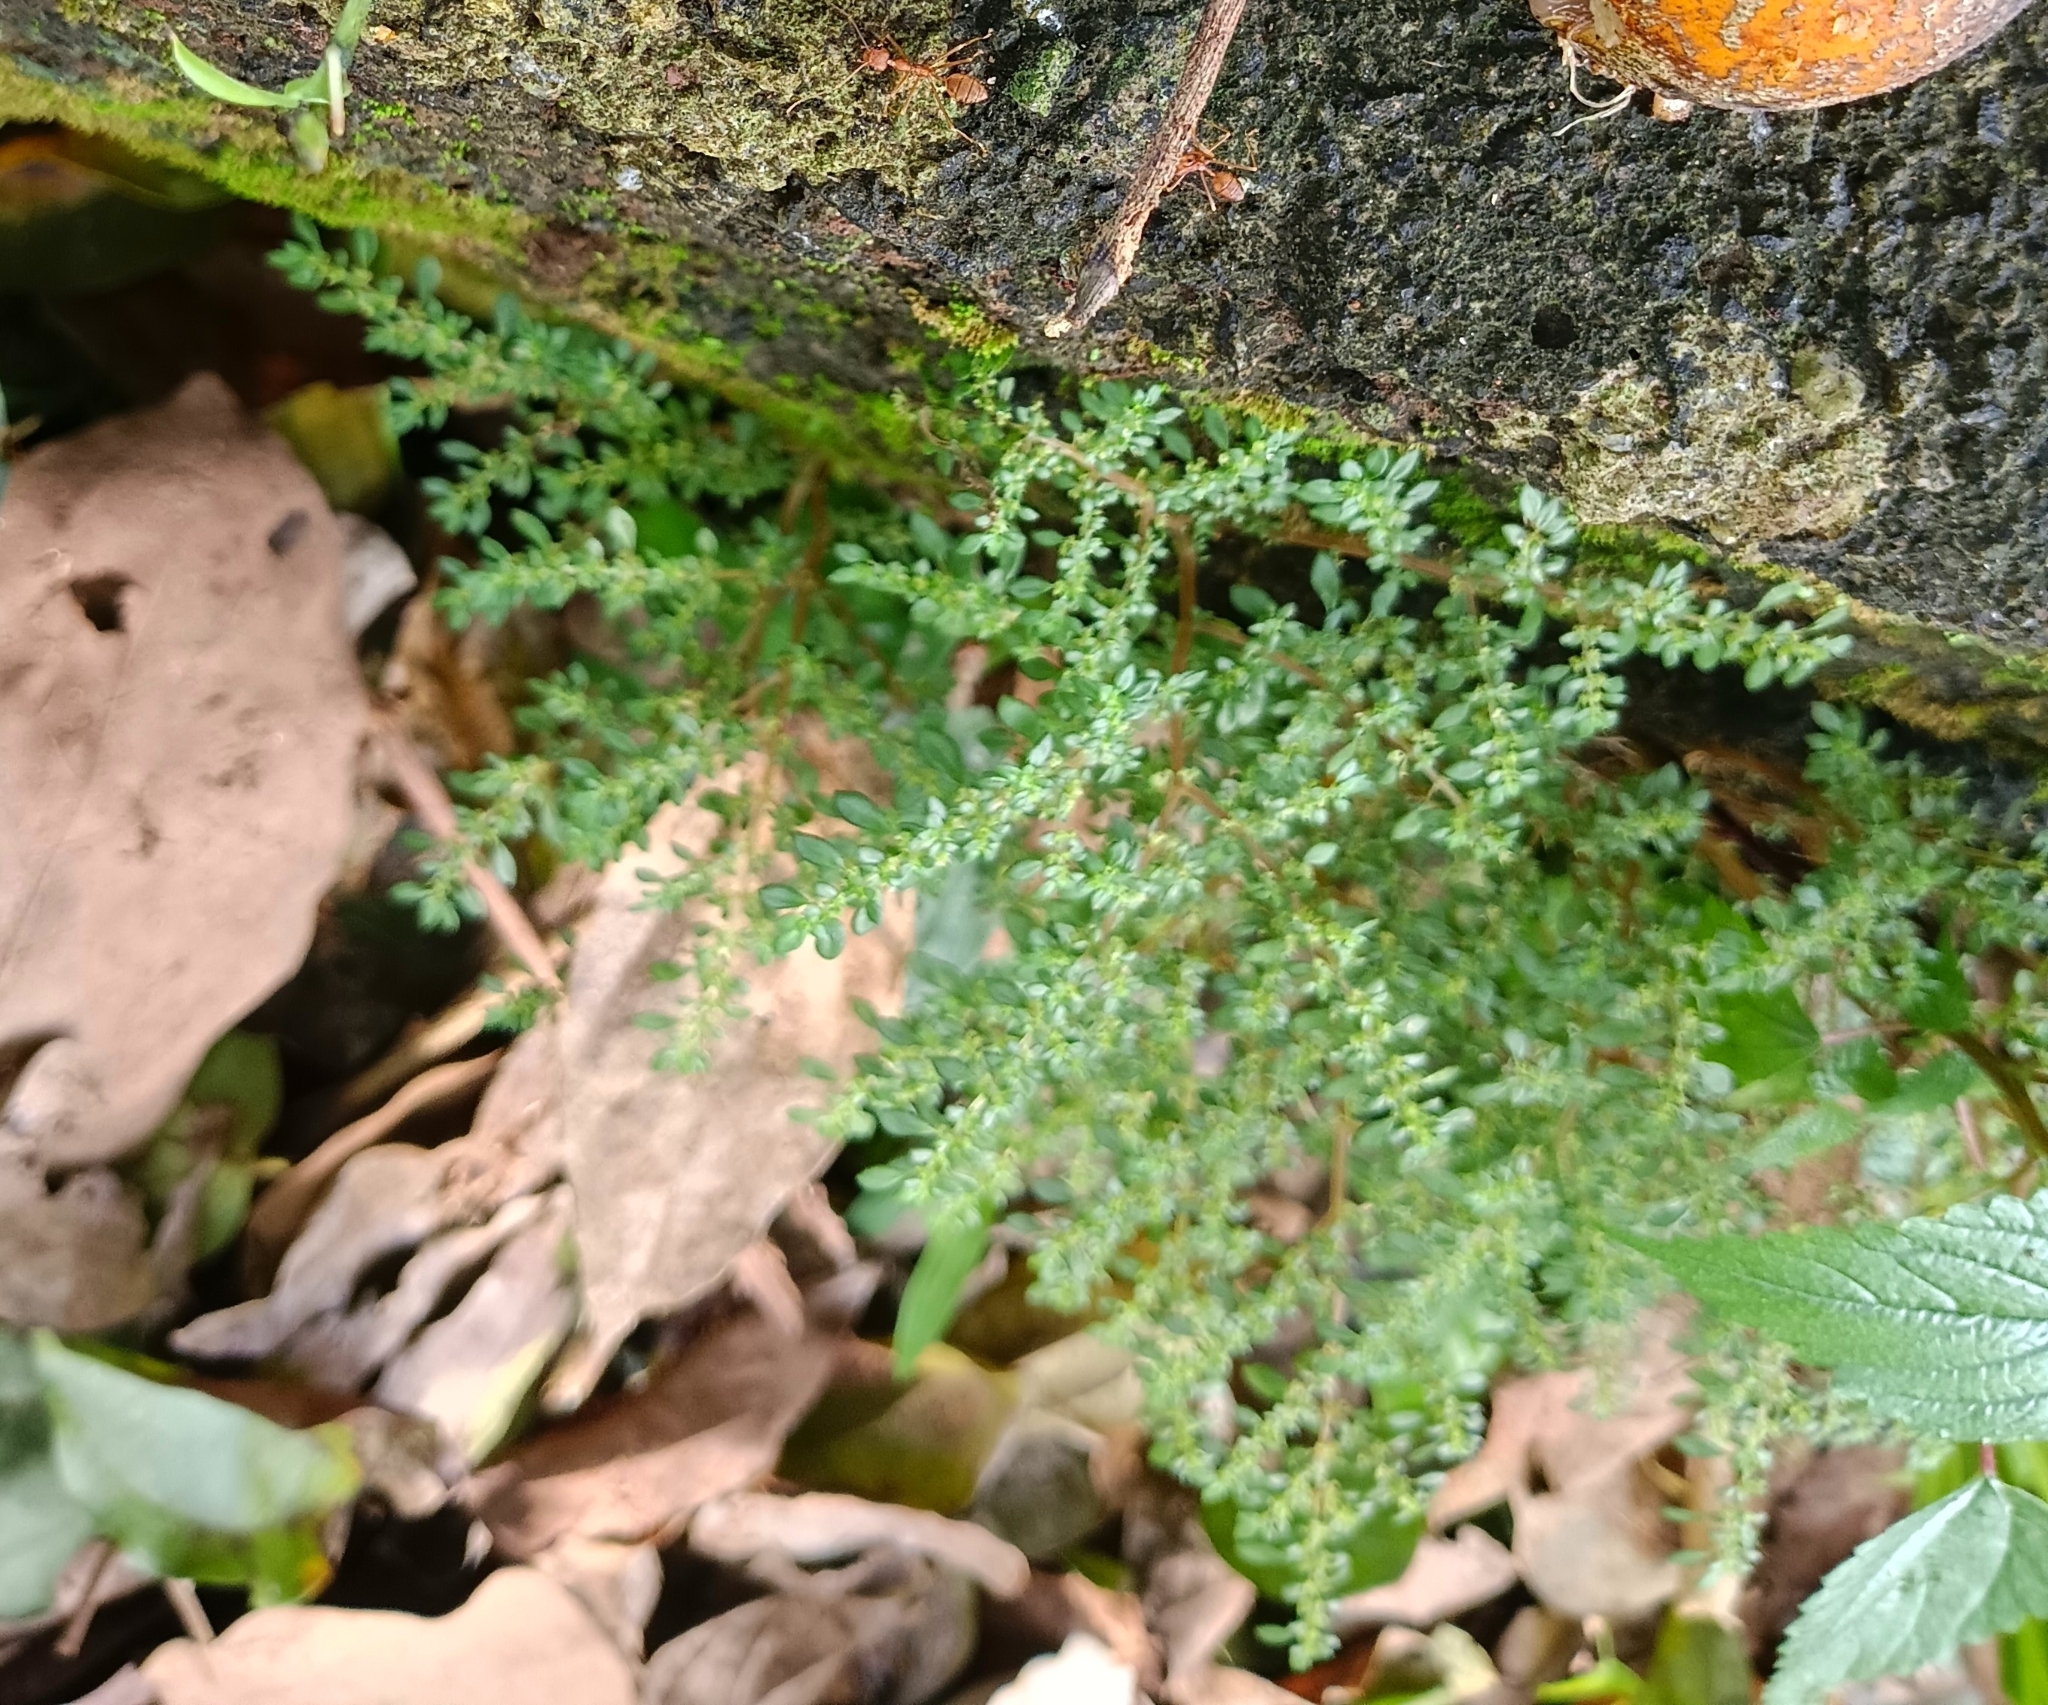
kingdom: Plantae
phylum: Tracheophyta
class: Magnoliopsida
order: Rosales
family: Urticaceae
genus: Pilea
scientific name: Pilea microphylla
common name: Artillery-plant
